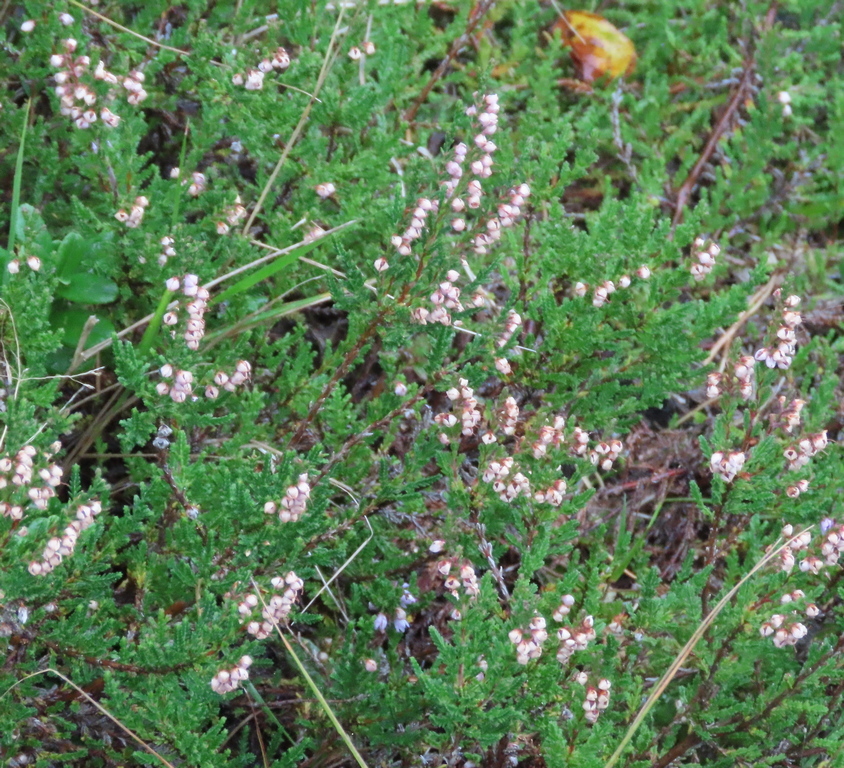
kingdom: Plantae
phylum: Tracheophyta
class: Magnoliopsida
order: Ericales
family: Ericaceae
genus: Calluna
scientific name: Calluna vulgaris
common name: Heather
